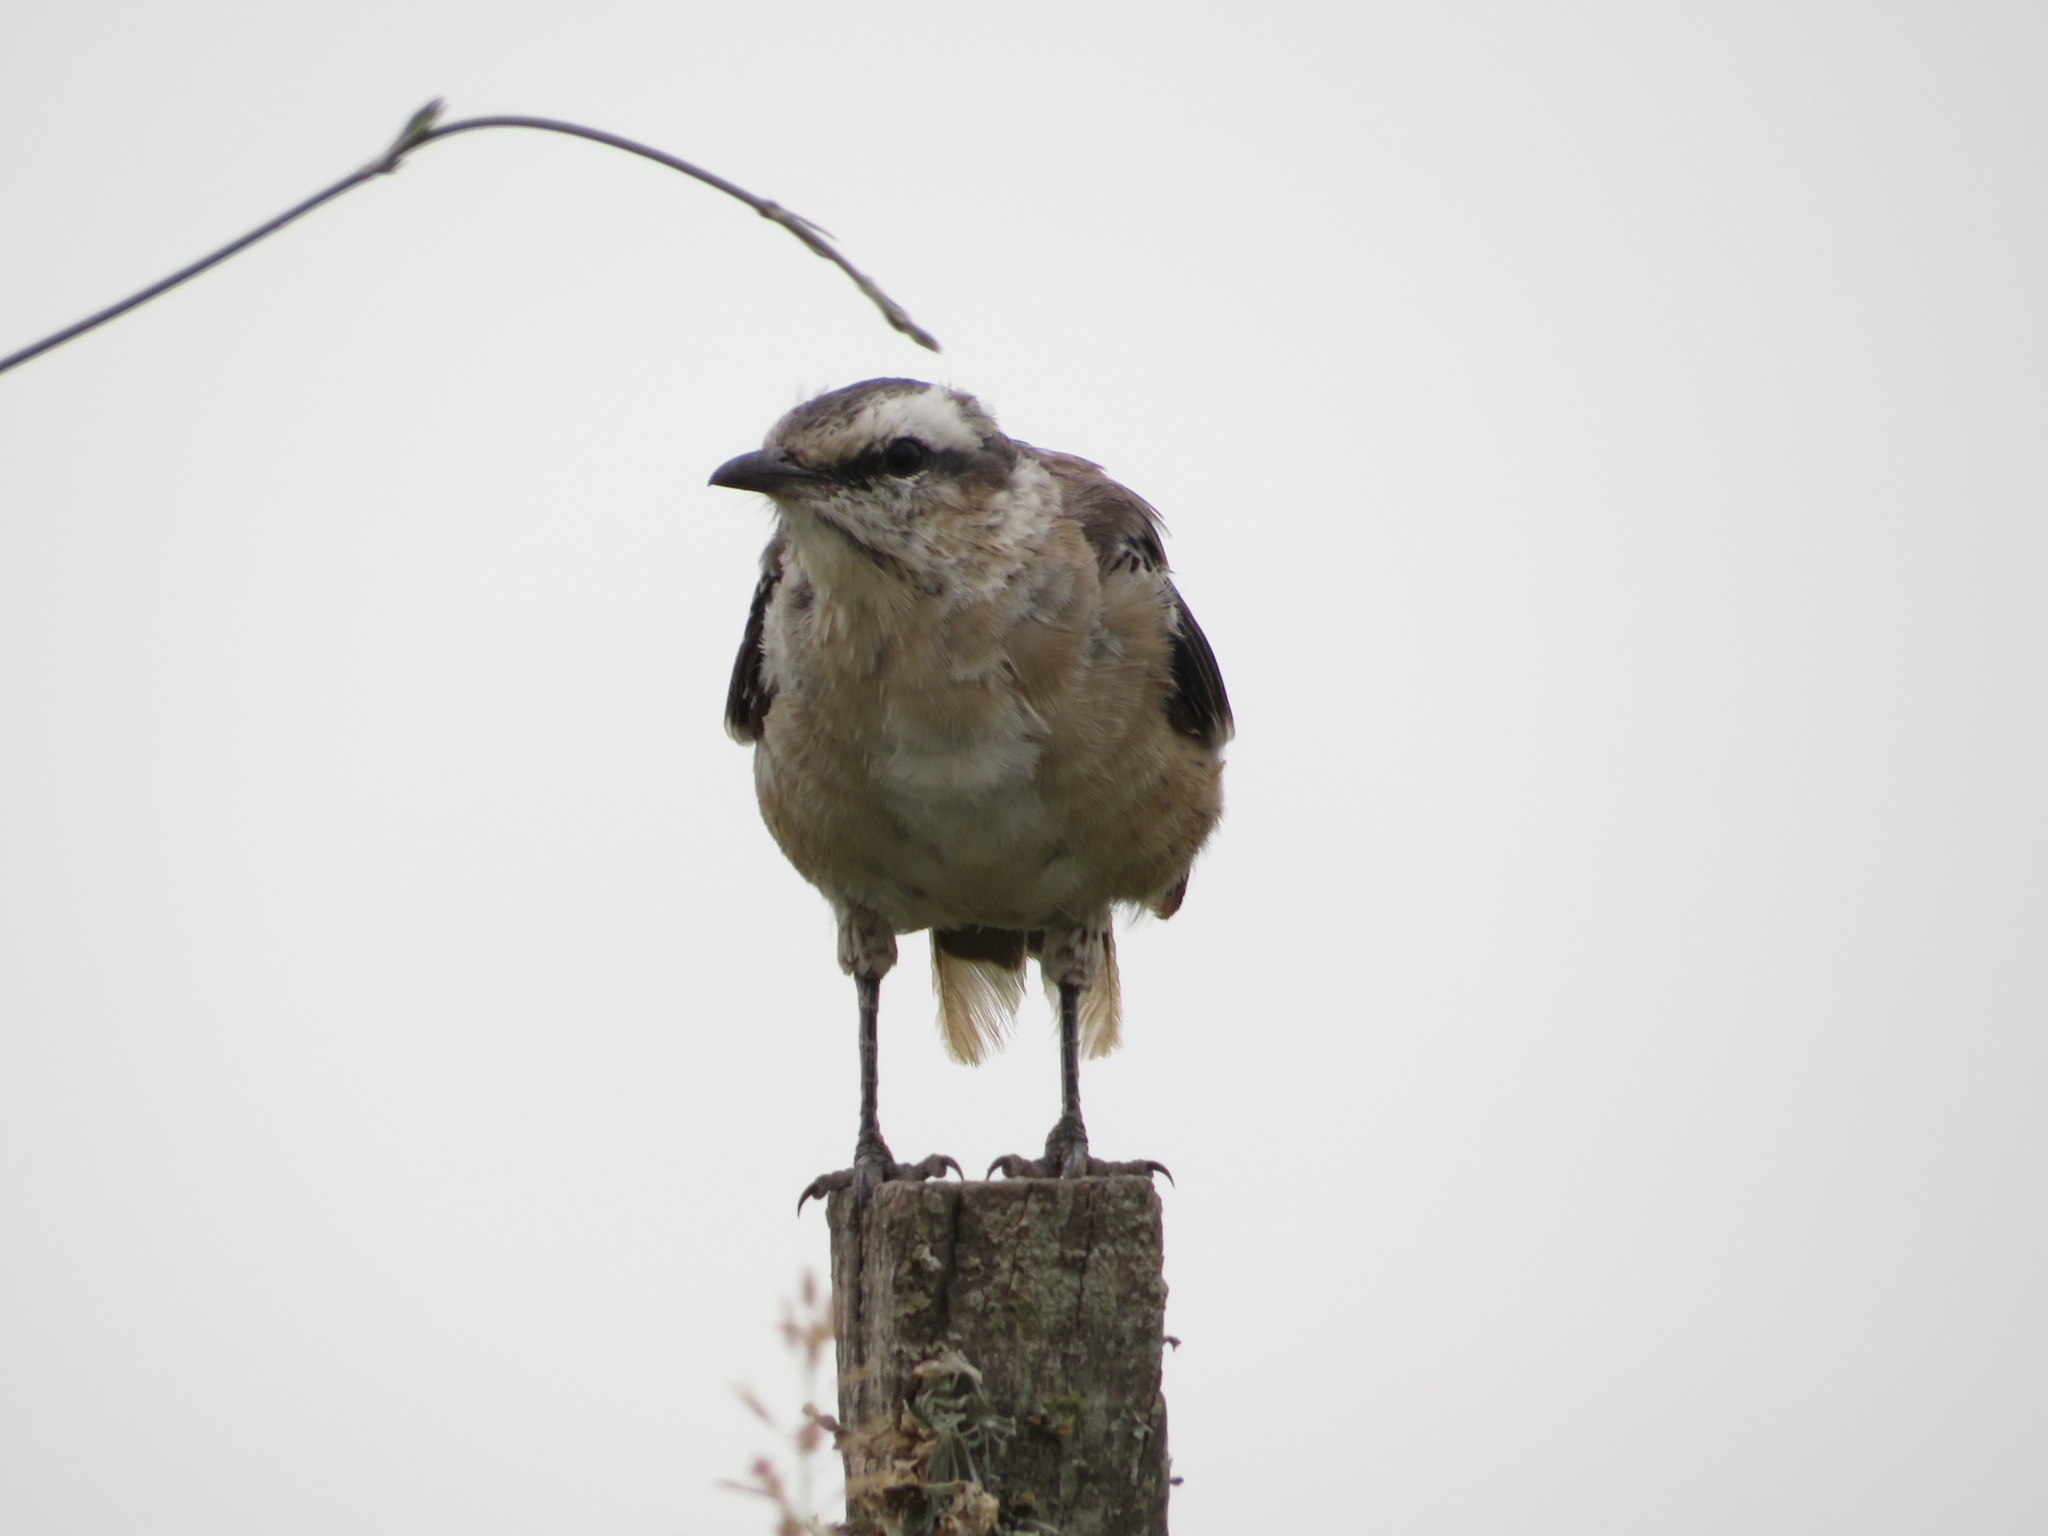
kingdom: Animalia
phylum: Chordata
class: Aves
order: Passeriformes
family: Mimidae
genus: Mimus
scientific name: Mimus saturninus
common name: Chalk-browed mockingbird
